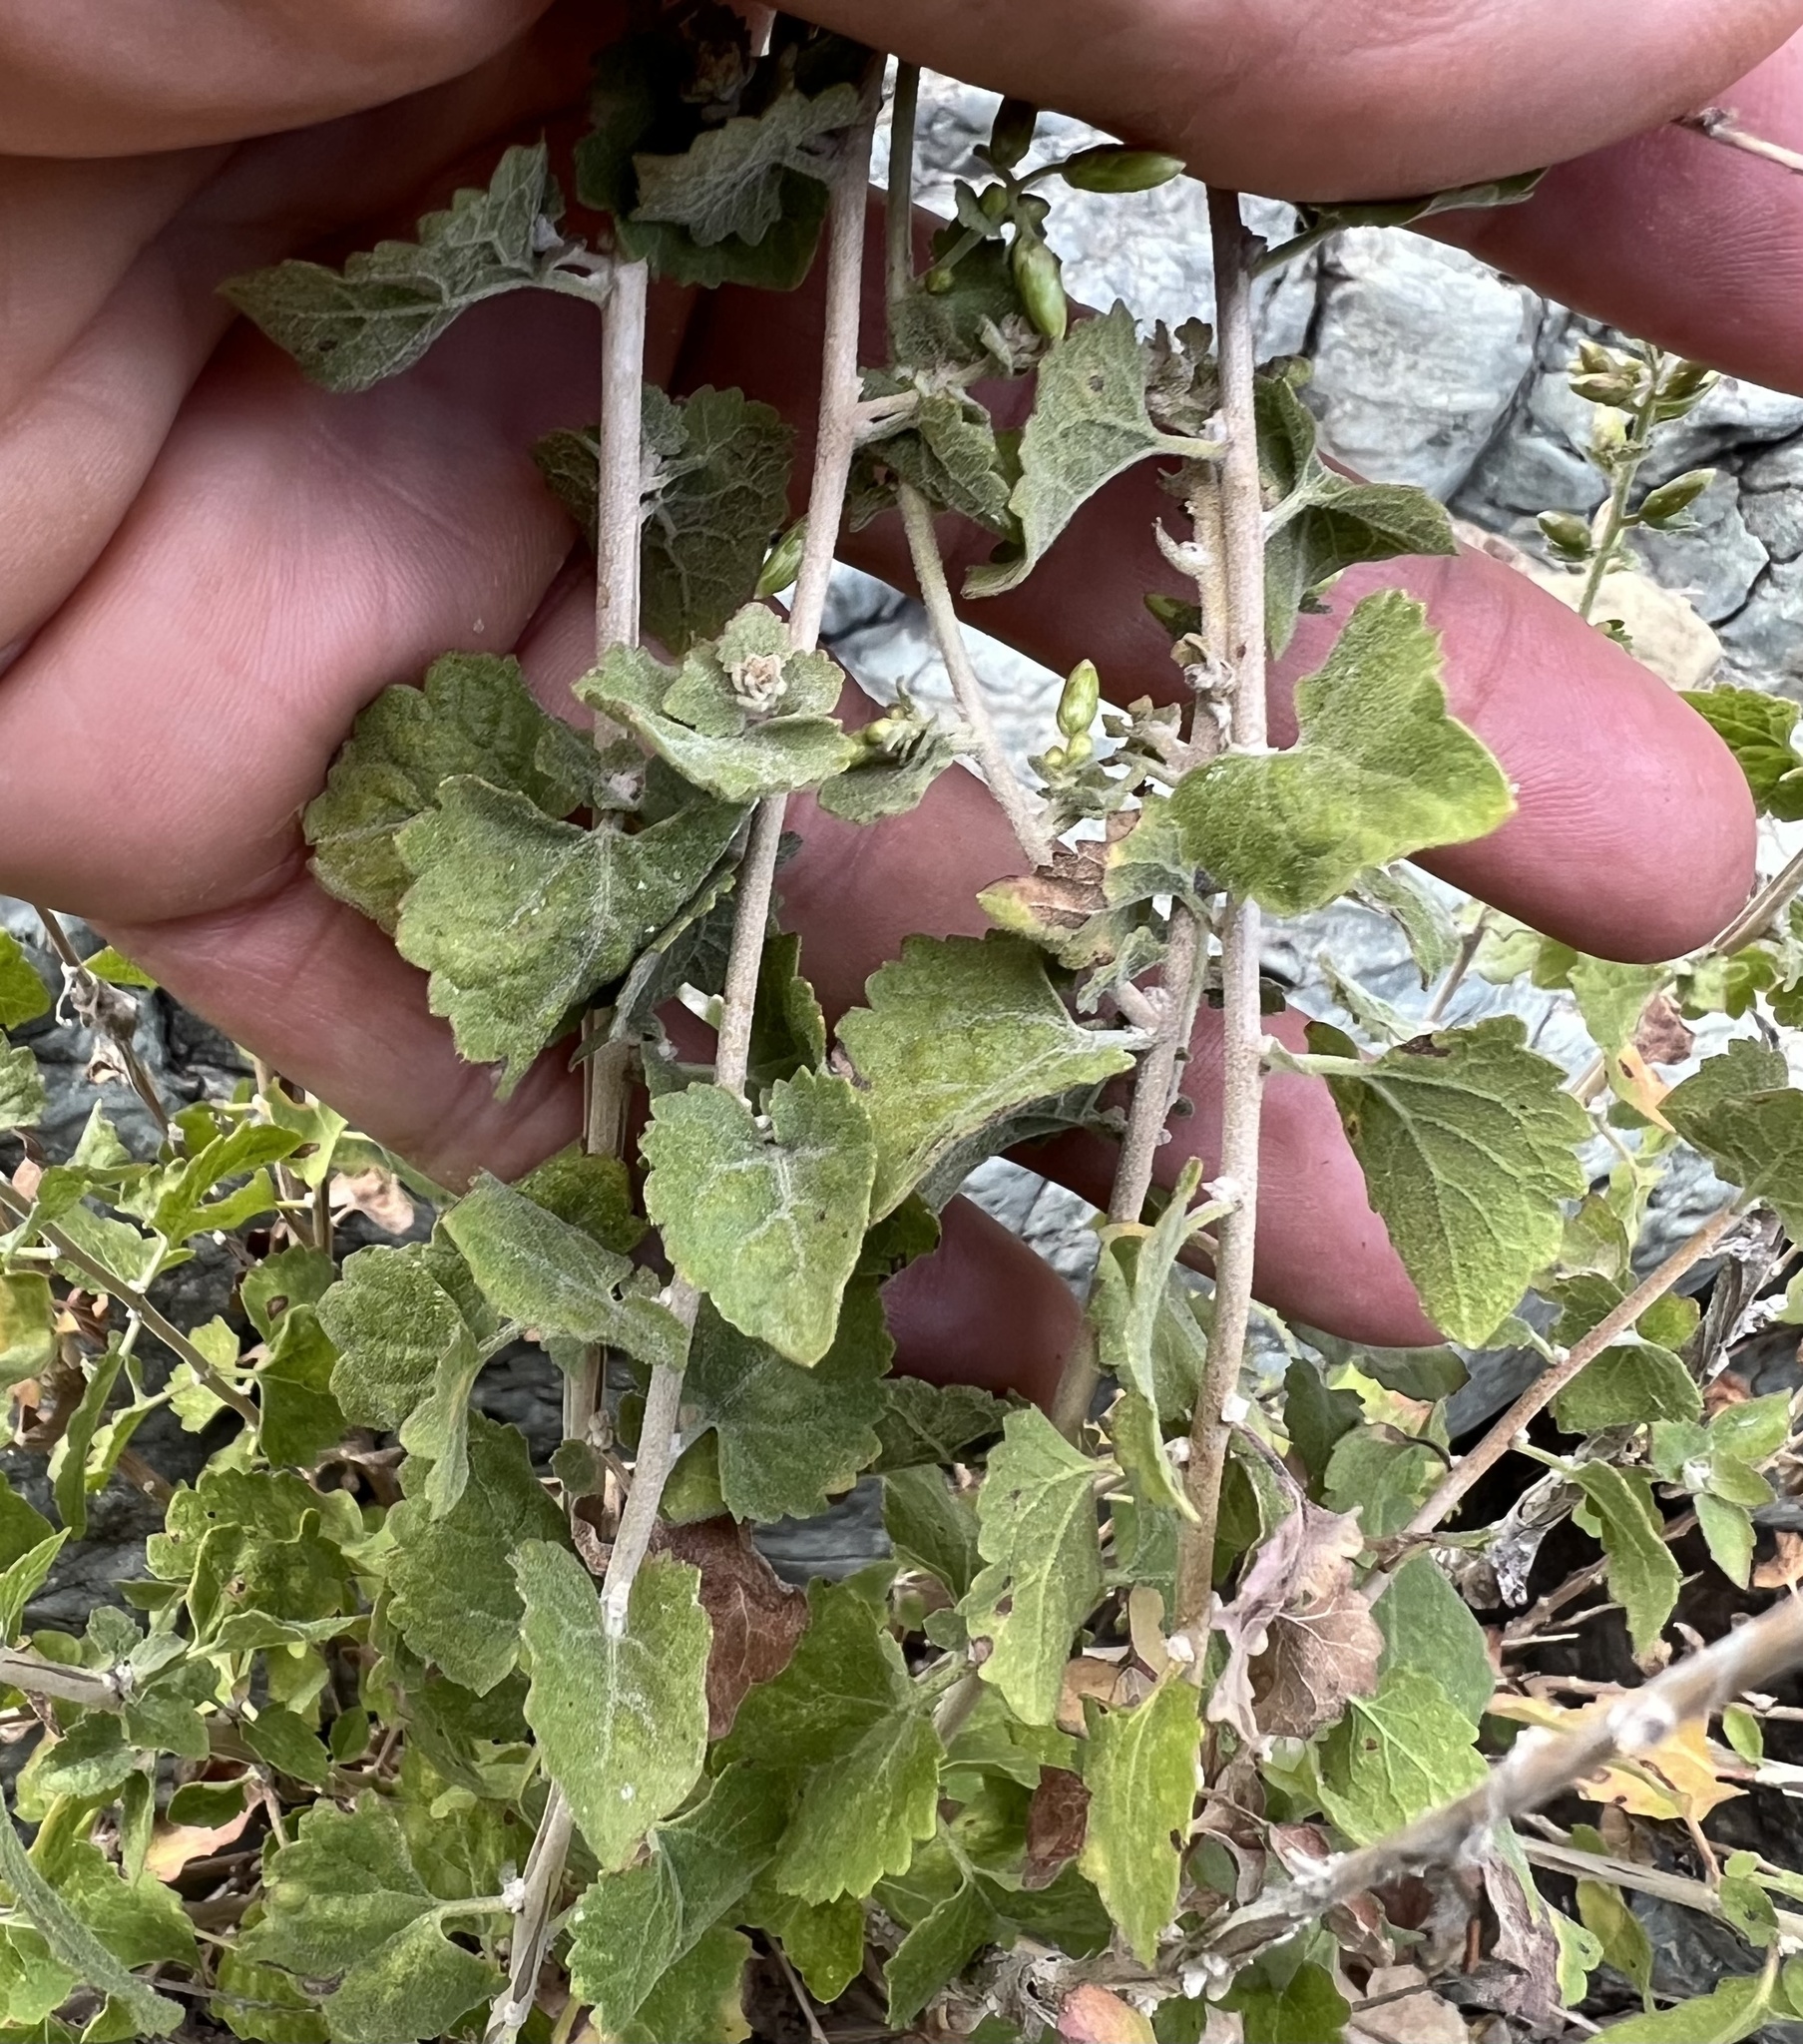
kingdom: Plantae
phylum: Tracheophyta
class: Magnoliopsida
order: Asterales
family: Asteraceae
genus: Brickellia
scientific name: Brickellia californica
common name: California brickellbush
